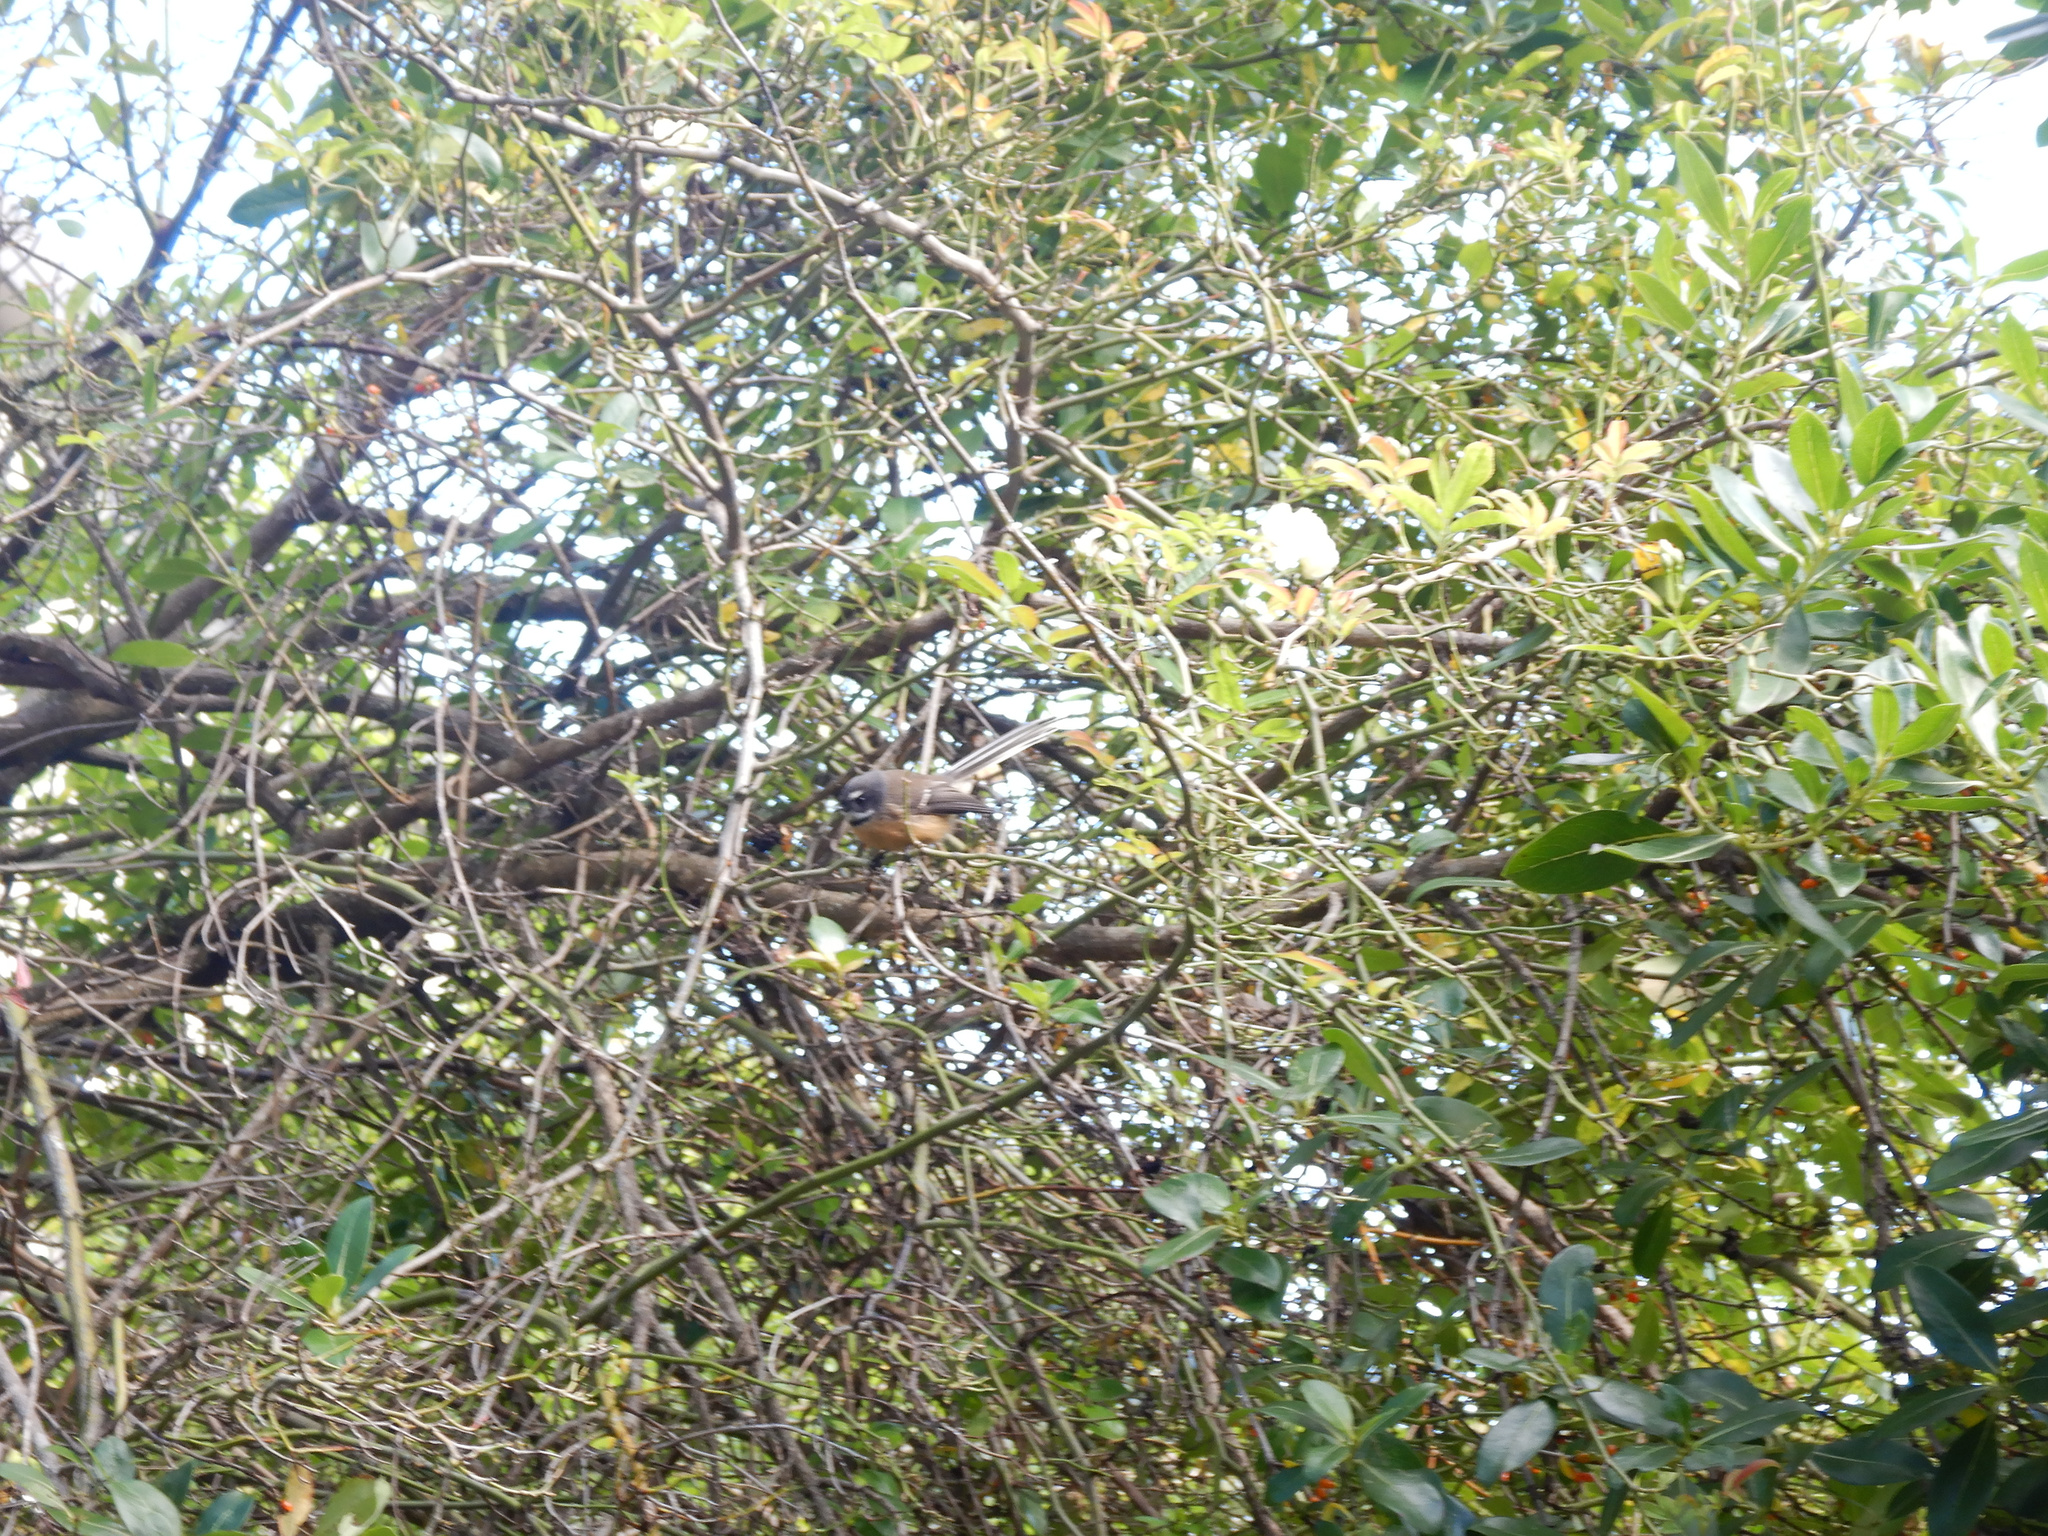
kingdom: Animalia
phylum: Chordata
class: Aves
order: Passeriformes
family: Rhipiduridae
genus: Rhipidura
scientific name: Rhipidura fuliginosa
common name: New zealand fantail
